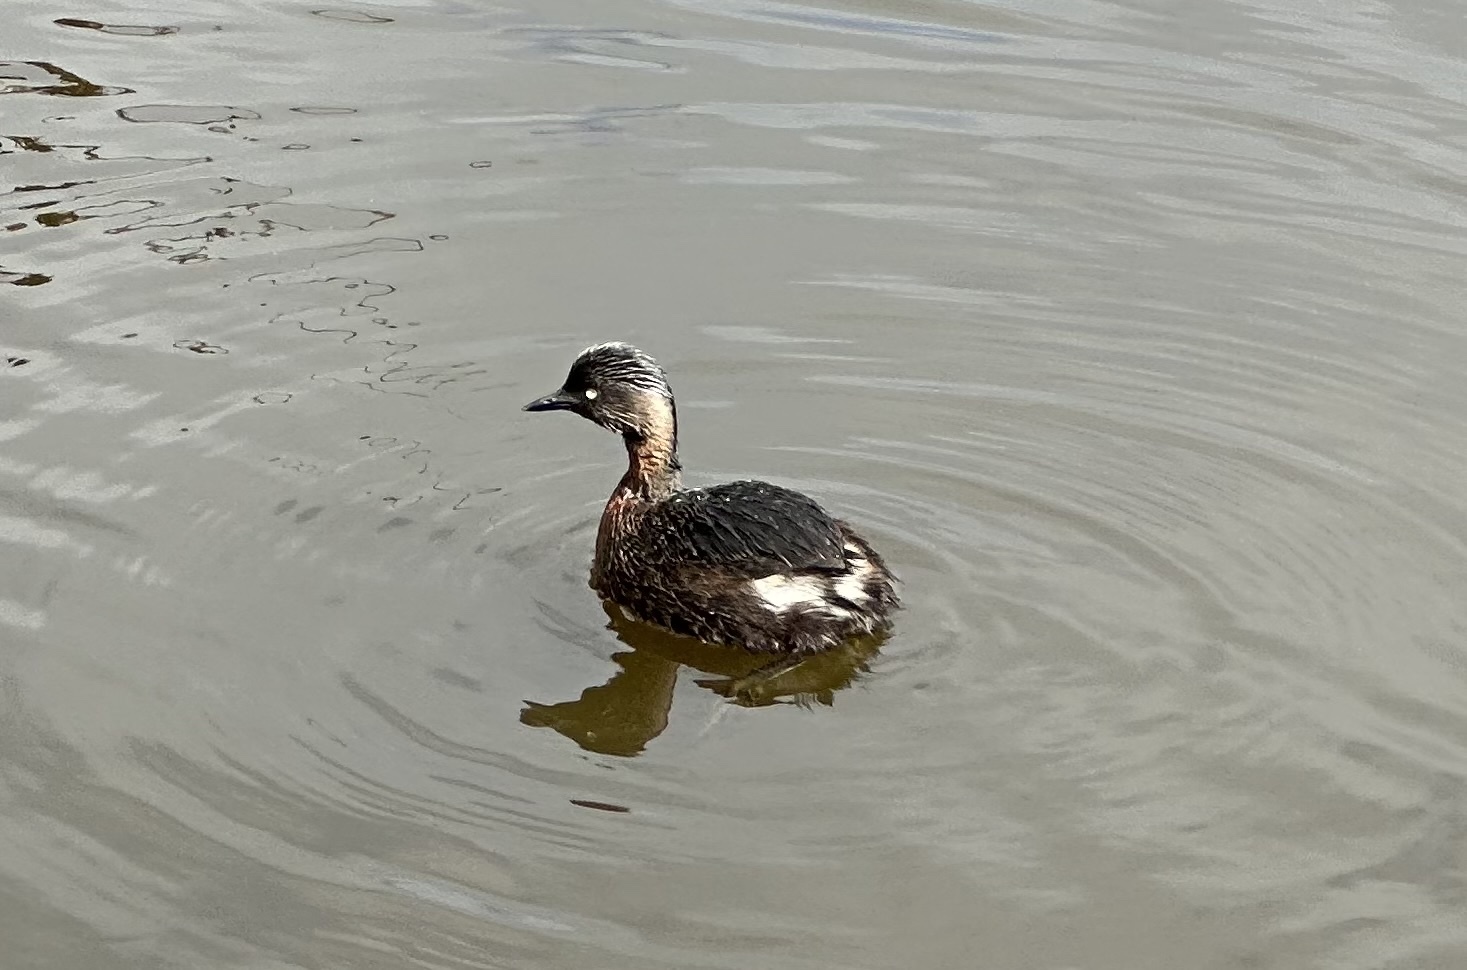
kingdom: Animalia
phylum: Chordata
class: Aves
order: Podicipediformes
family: Podicipedidae
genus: Poliocephalus
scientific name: Poliocephalus rufopectus
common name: New zealand grebe
